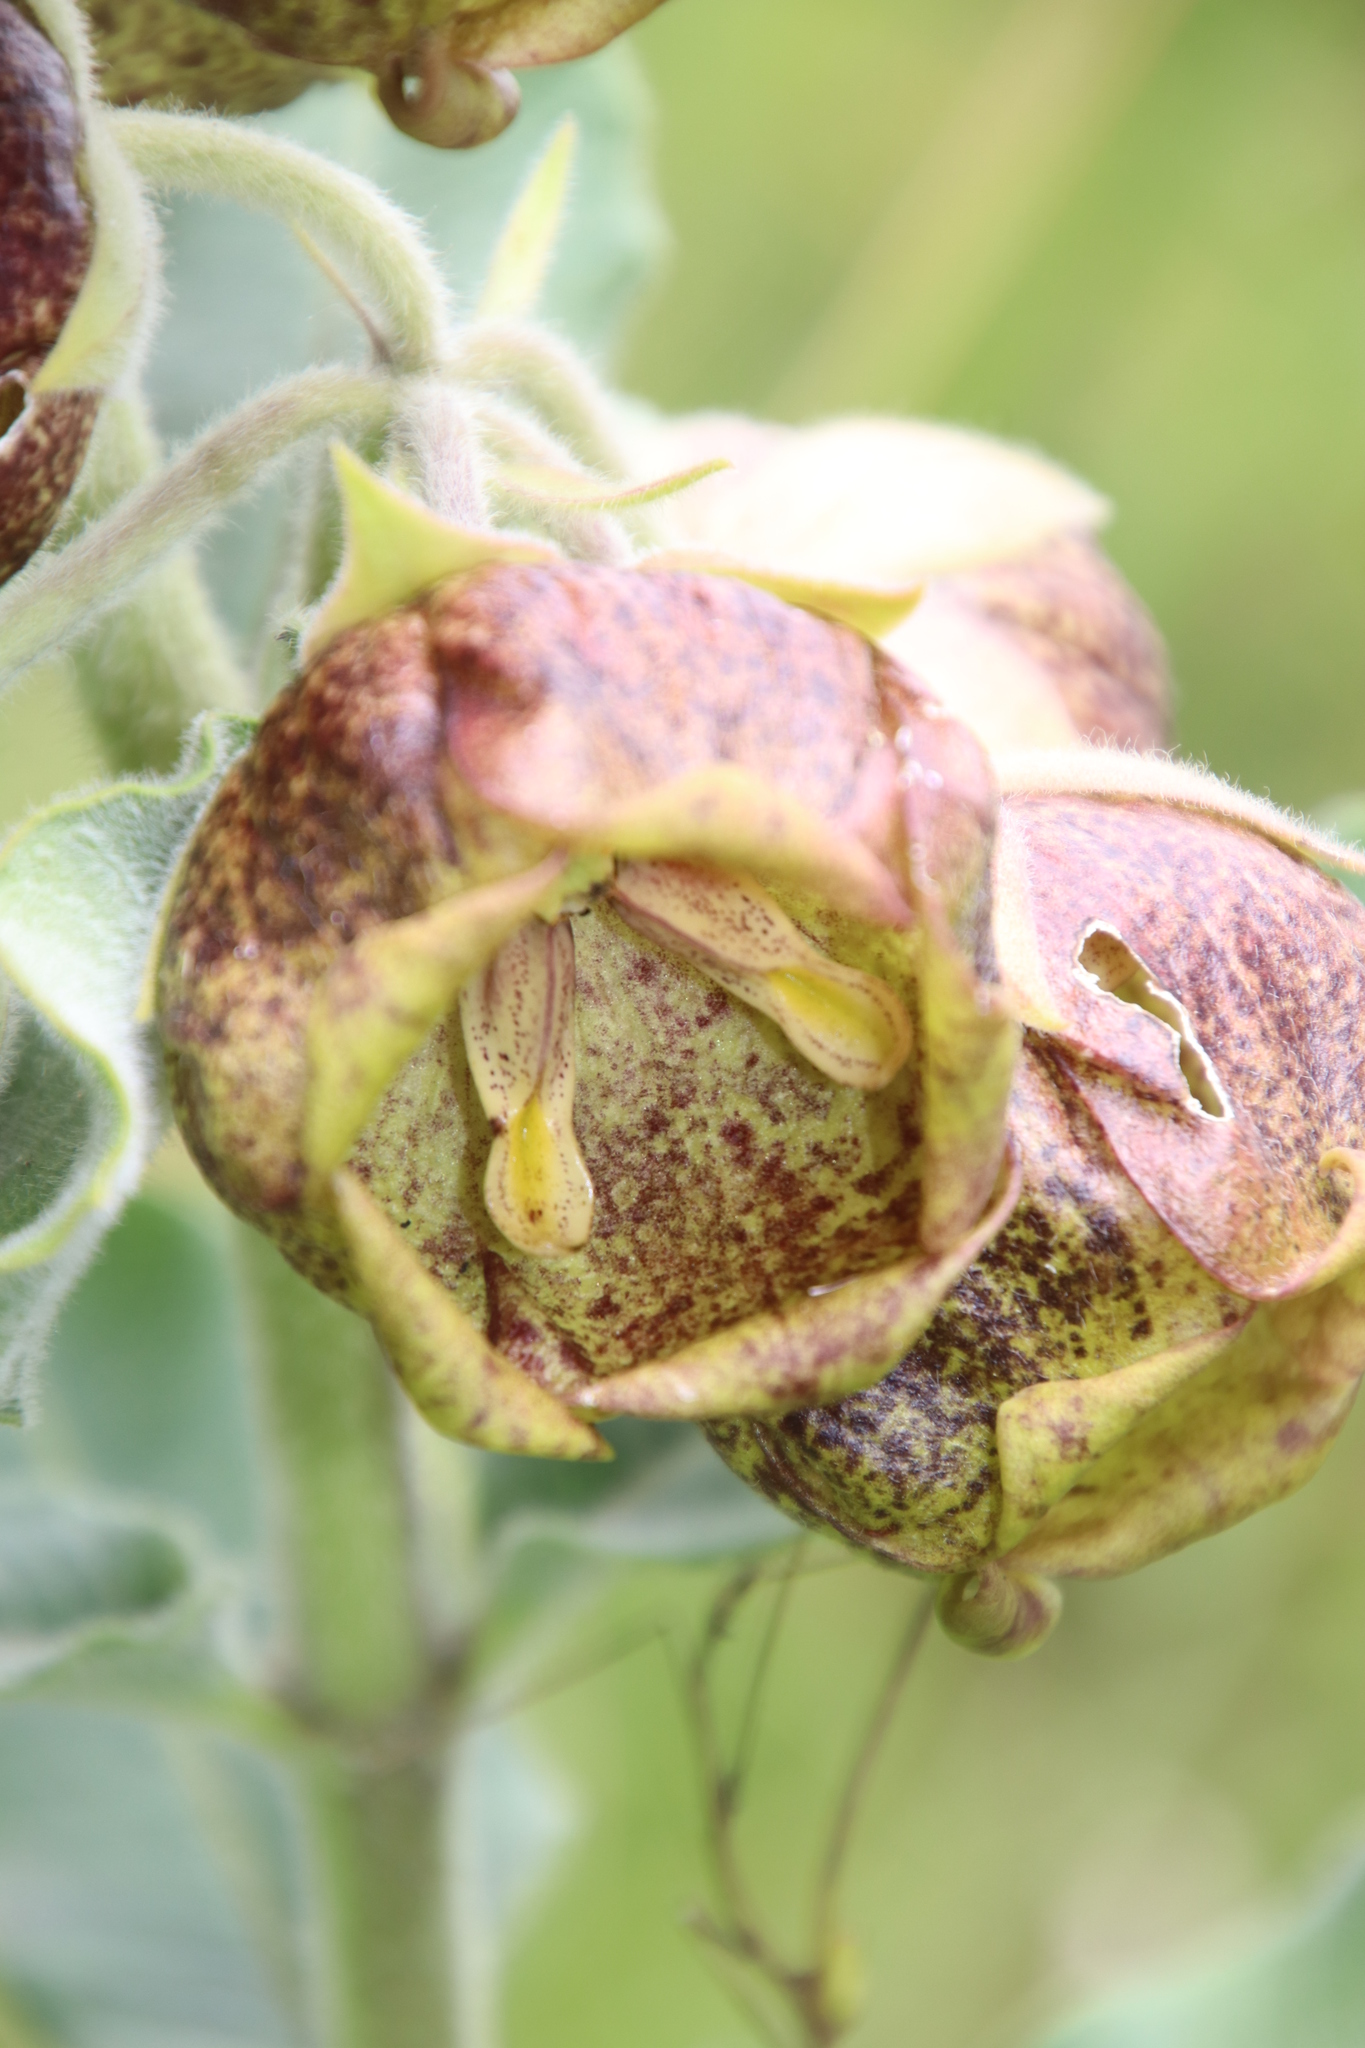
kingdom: Plantae
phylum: Tracheophyta
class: Magnoliopsida
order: Gentianales
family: Apocynaceae
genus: Pachycarpus
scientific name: Pachycarpus grandiflorus
